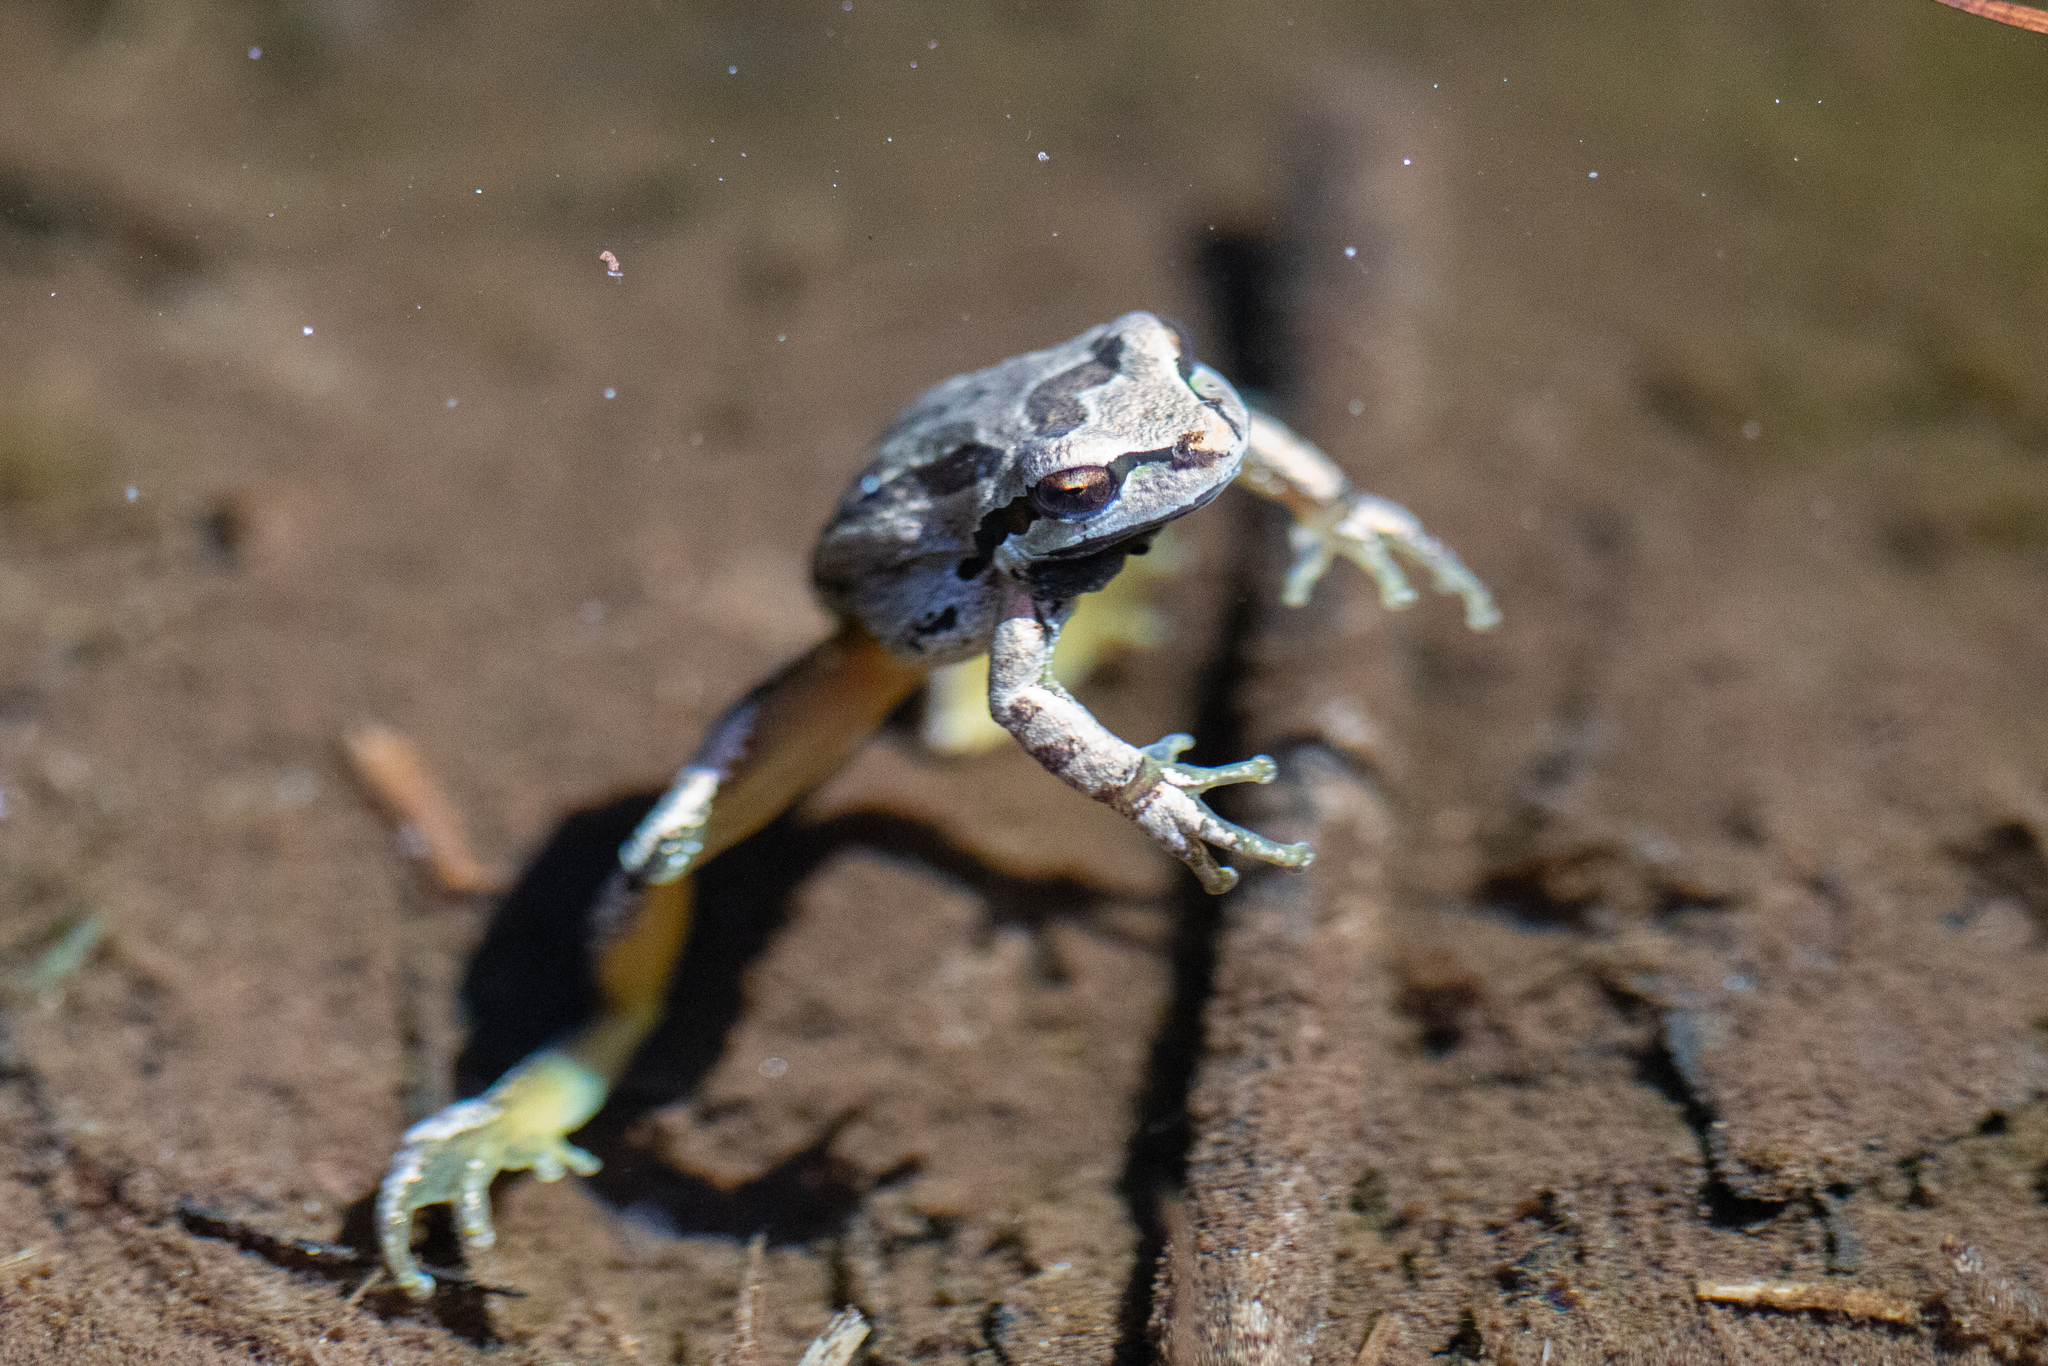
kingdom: Animalia
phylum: Chordata
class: Amphibia
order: Anura
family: Hylidae
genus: Pseudacris
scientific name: Pseudacris regilla
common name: Pacific chorus frog
